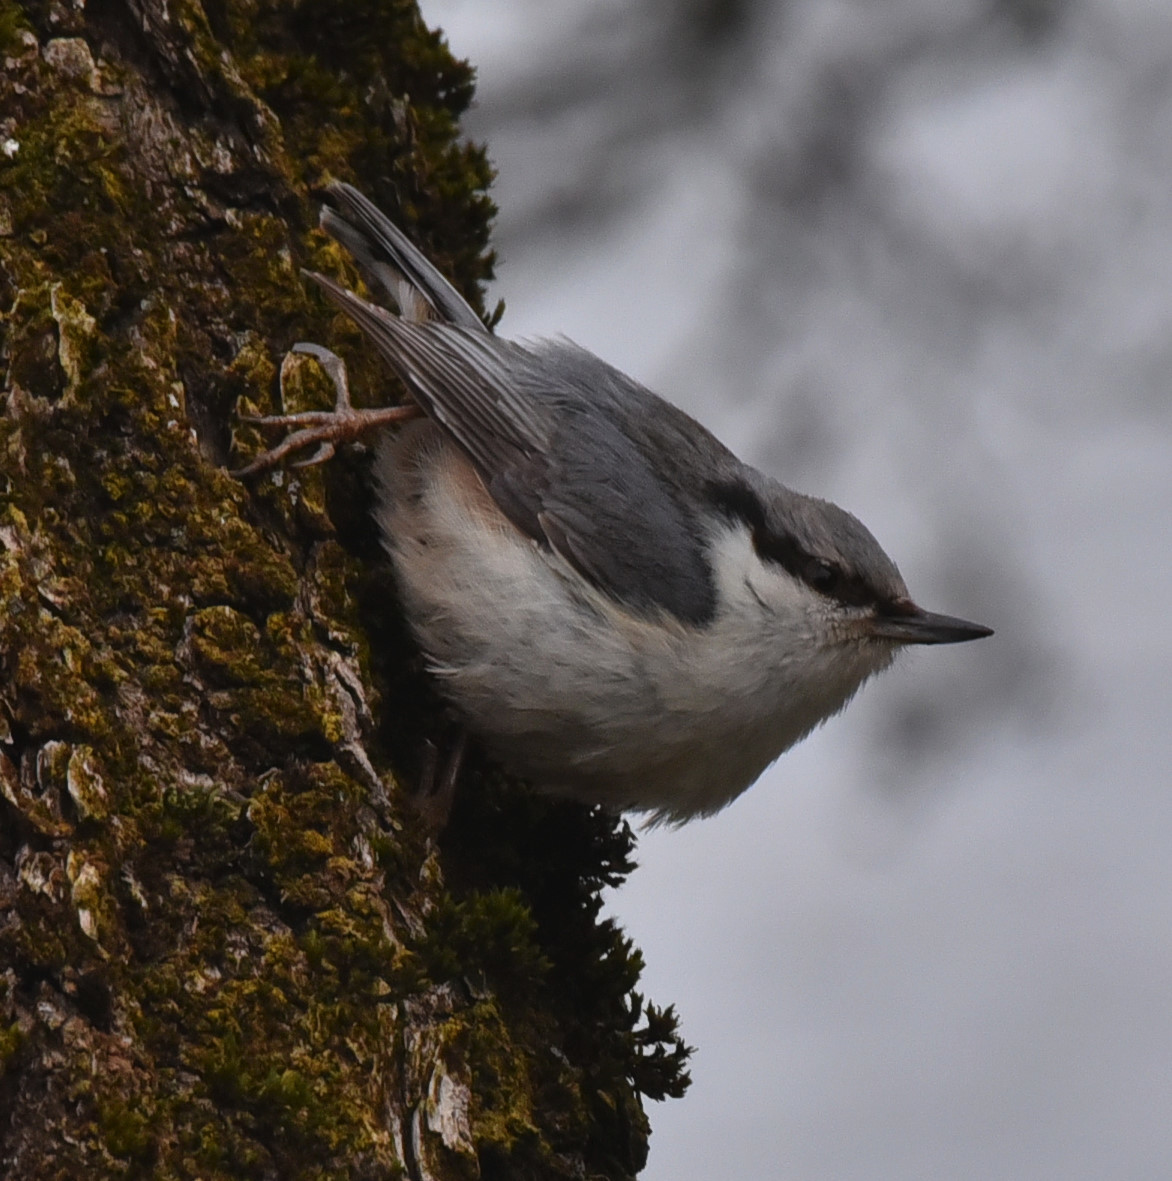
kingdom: Animalia
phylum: Chordata
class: Aves
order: Passeriformes
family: Sittidae
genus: Sitta
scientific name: Sitta europaea
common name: Eurasian nuthatch
